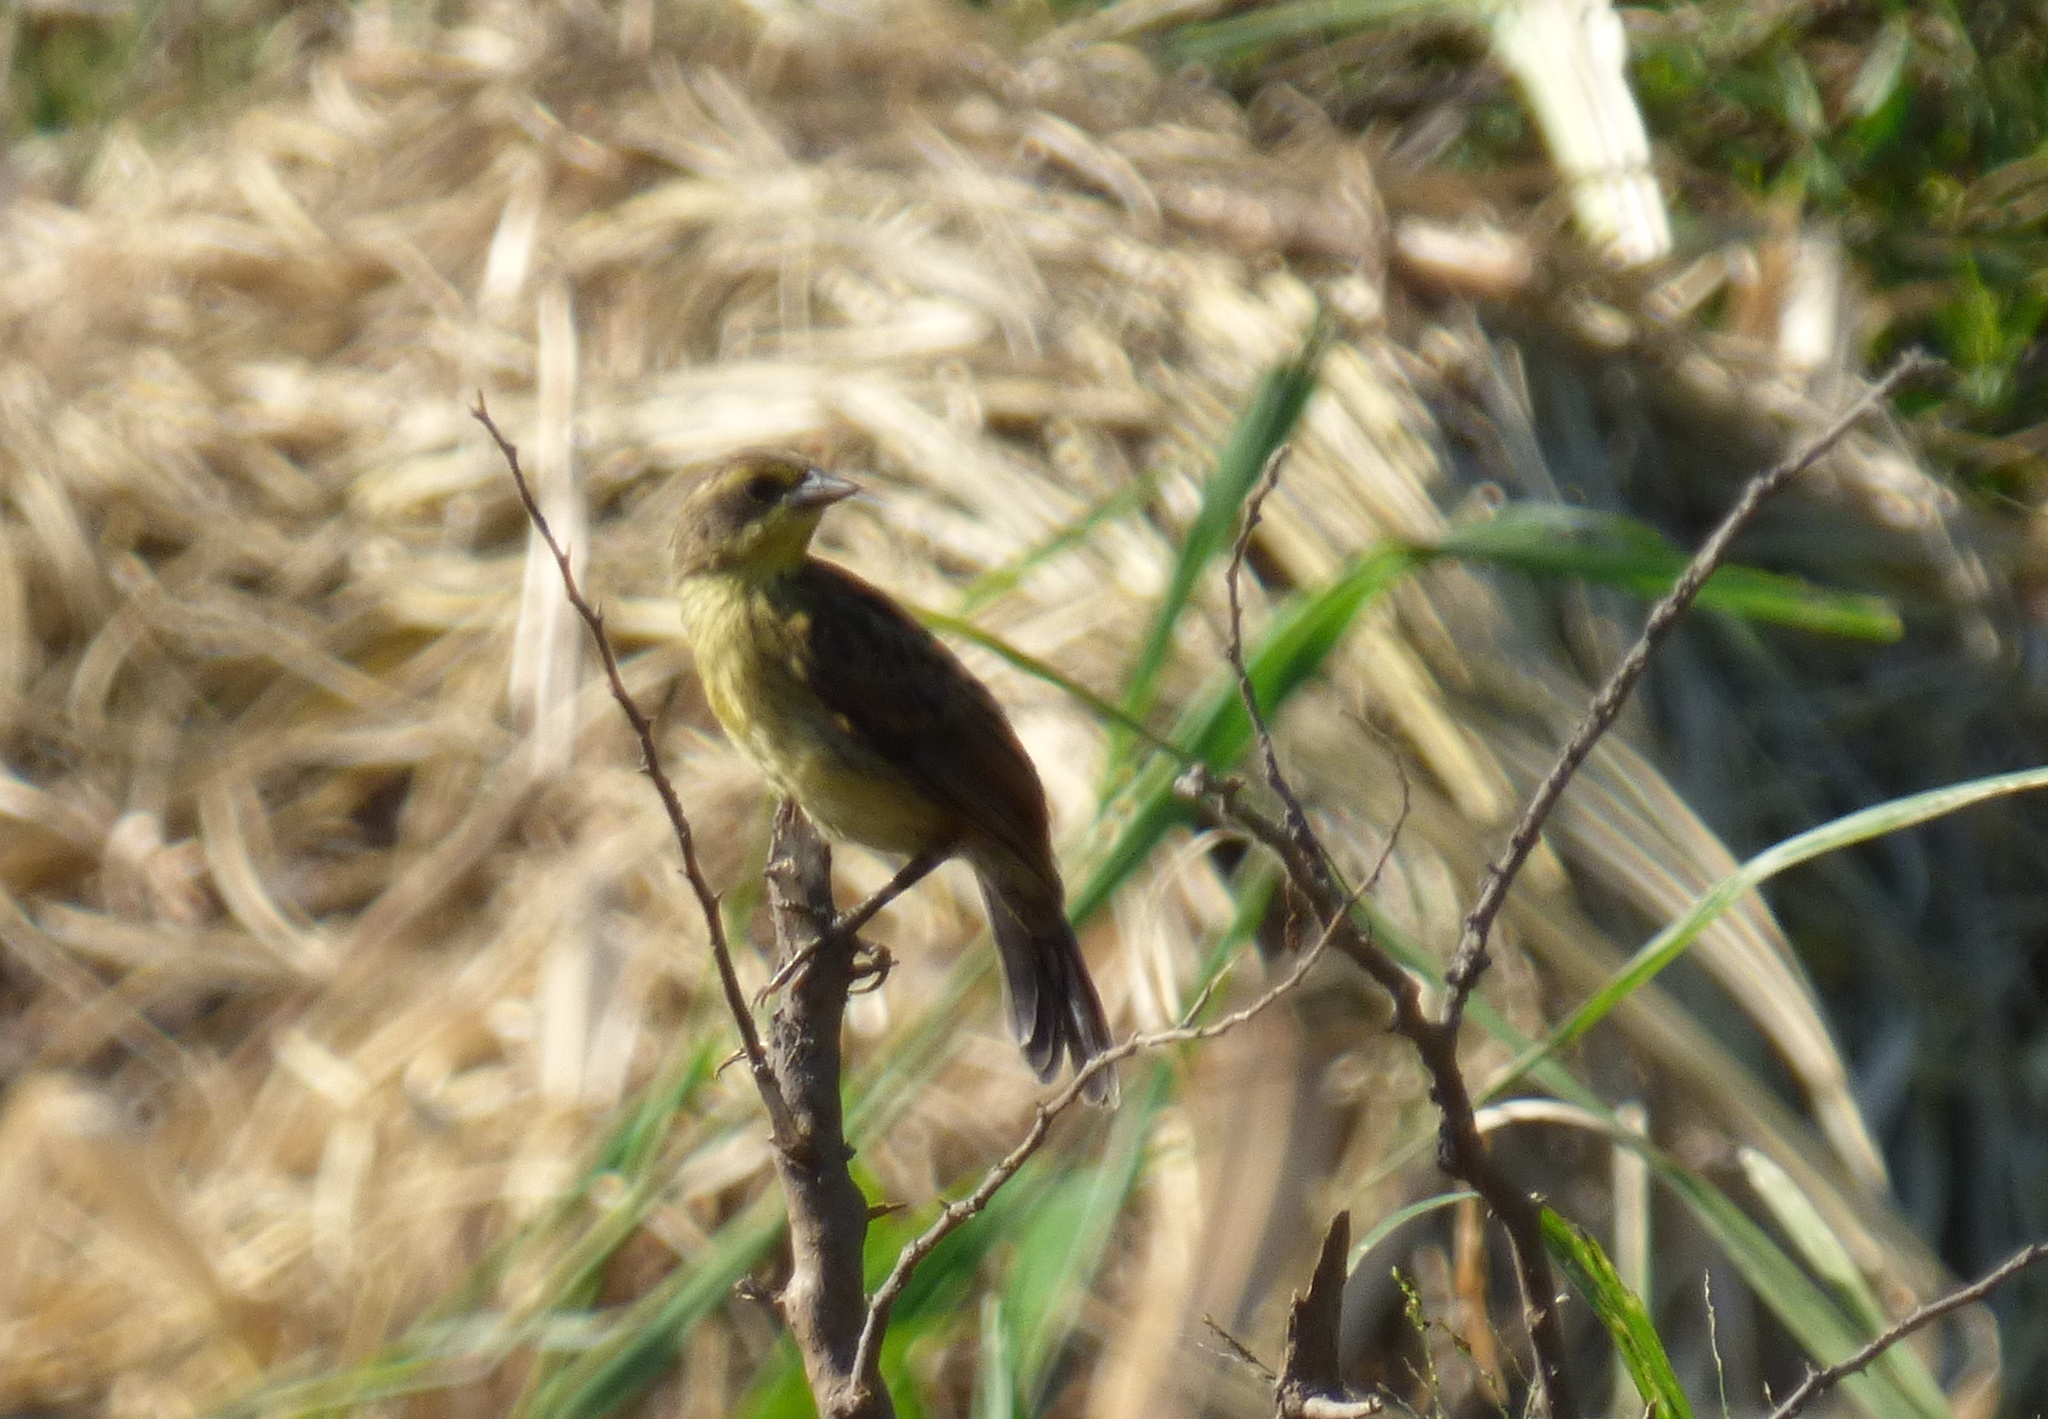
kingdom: Animalia
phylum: Chordata
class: Aves
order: Passeriformes
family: Icteridae
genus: Agelasticus
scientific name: Agelasticus cyanopus
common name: Unicolored blackbird
